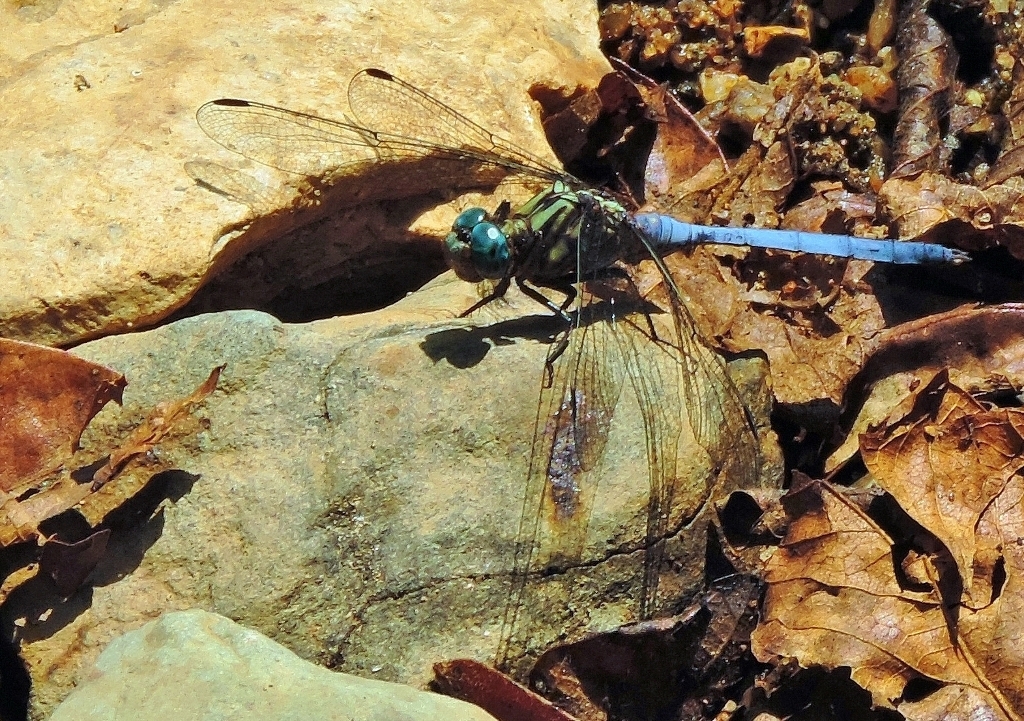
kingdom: Animalia
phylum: Arthropoda
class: Insecta
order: Odonata
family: Libellulidae
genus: Orthetrum
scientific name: Orthetrum julia
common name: Julia skimmer
